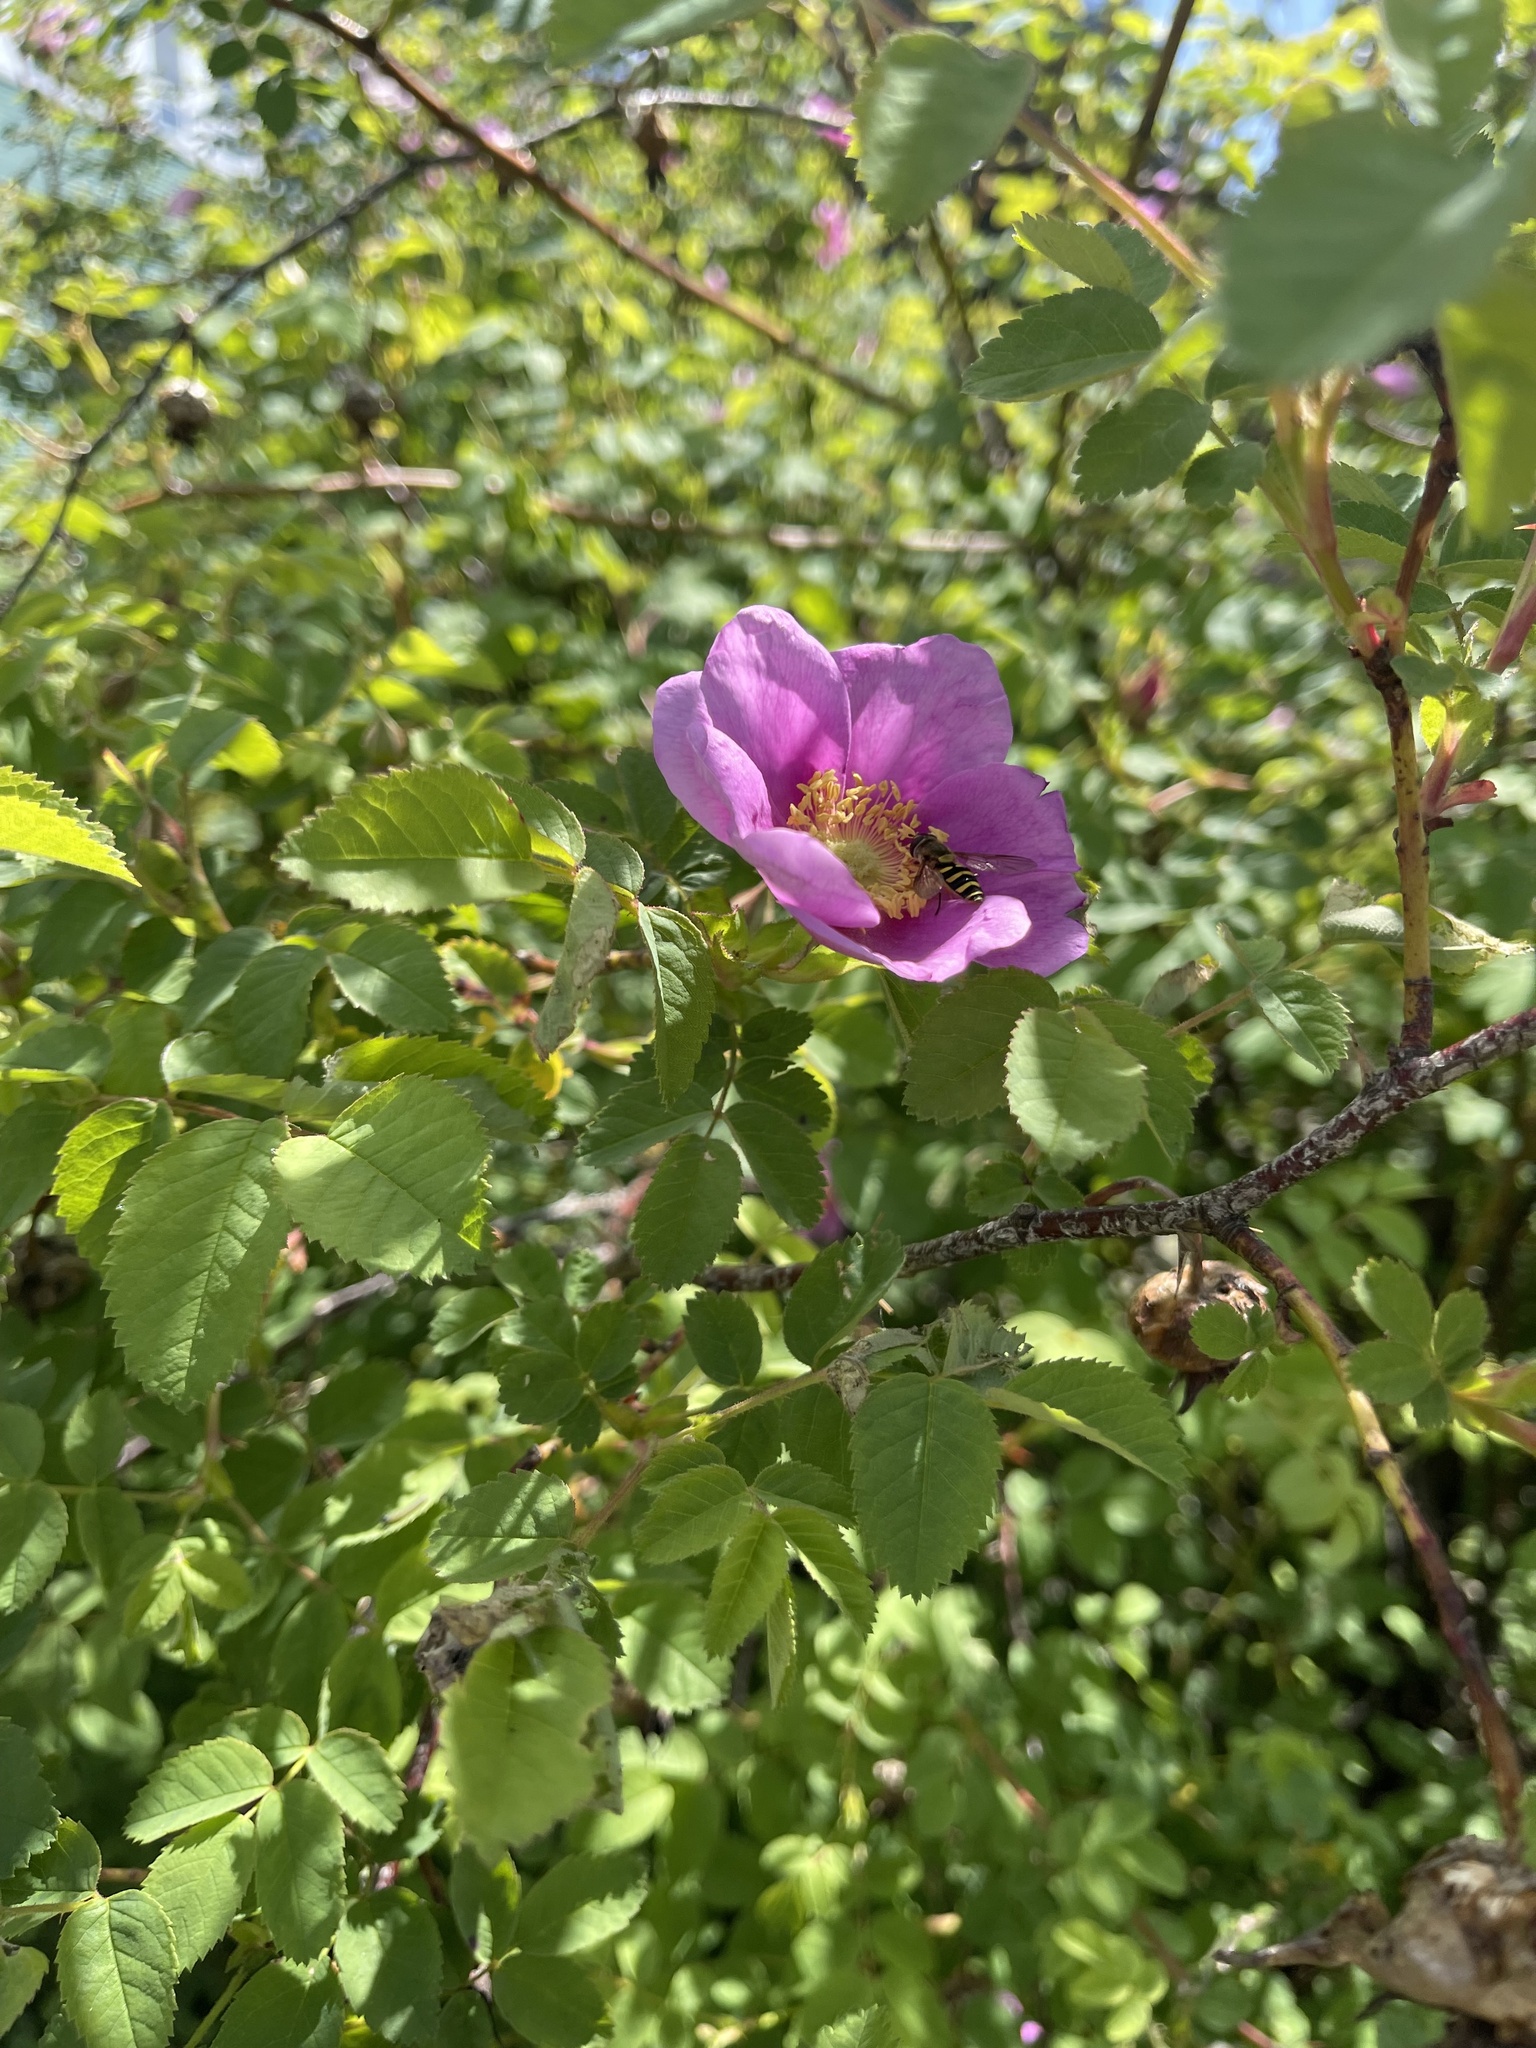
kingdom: Animalia
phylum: Arthropoda
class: Insecta
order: Diptera
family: Syrphidae
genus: Syrphus
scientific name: Syrphus opinator
